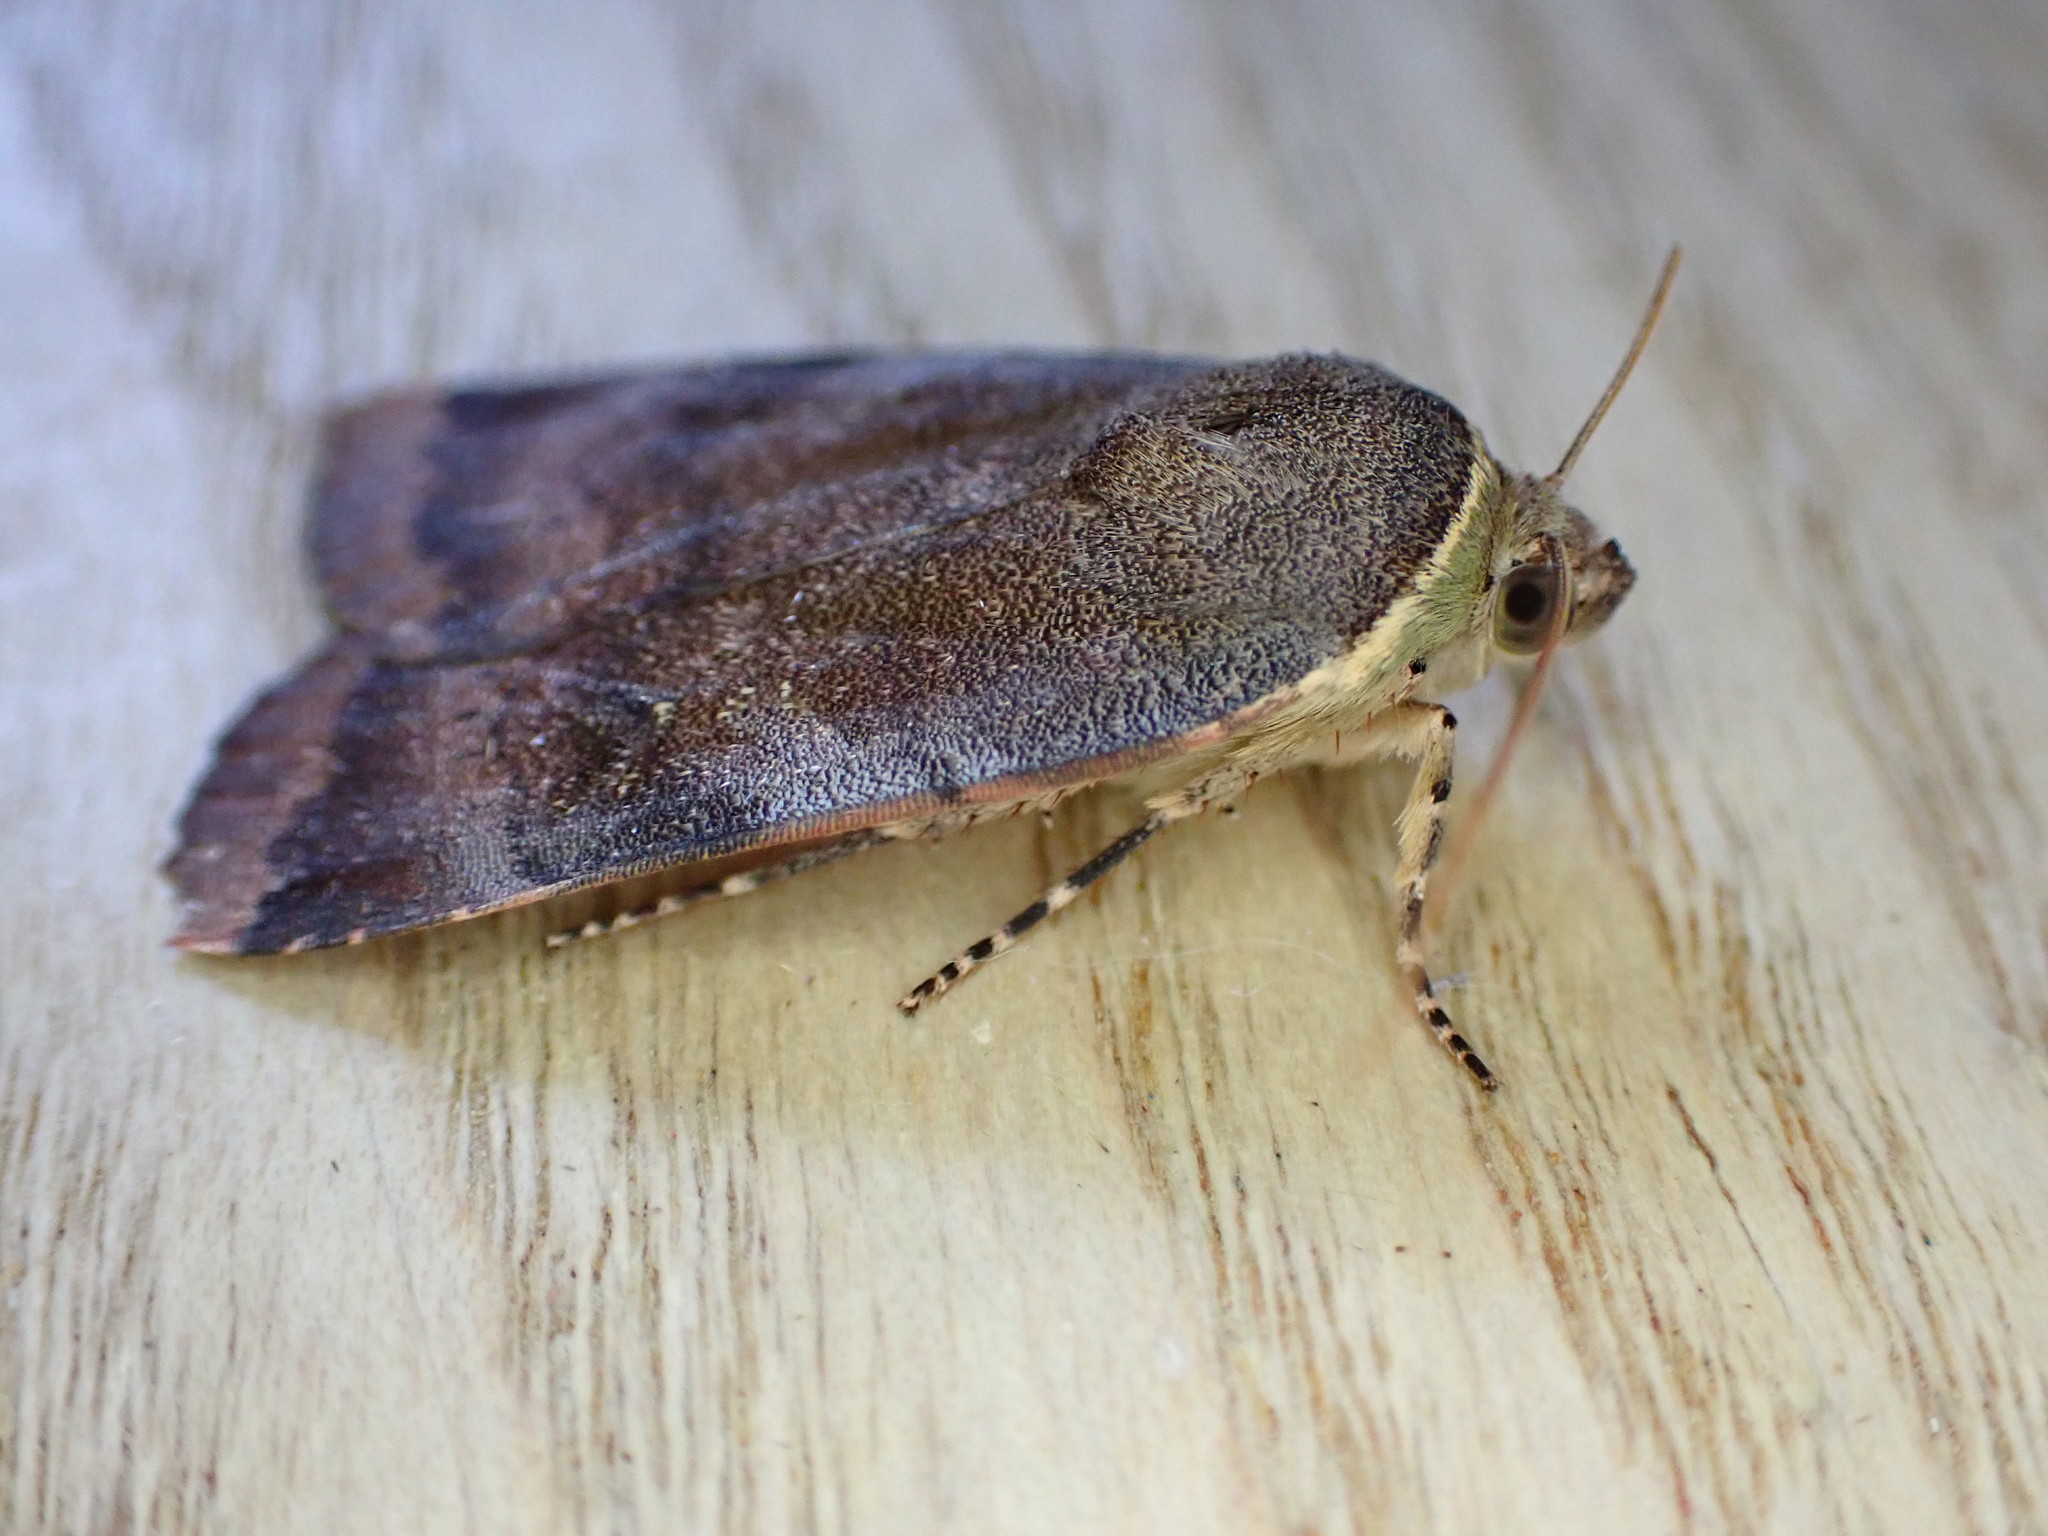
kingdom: Animalia
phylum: Arthropoda
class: Insecta
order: Lepidoptera
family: Noctuidae
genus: Noctua
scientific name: Noctua janthe
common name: Lesser broad-bordered yellow underwing
